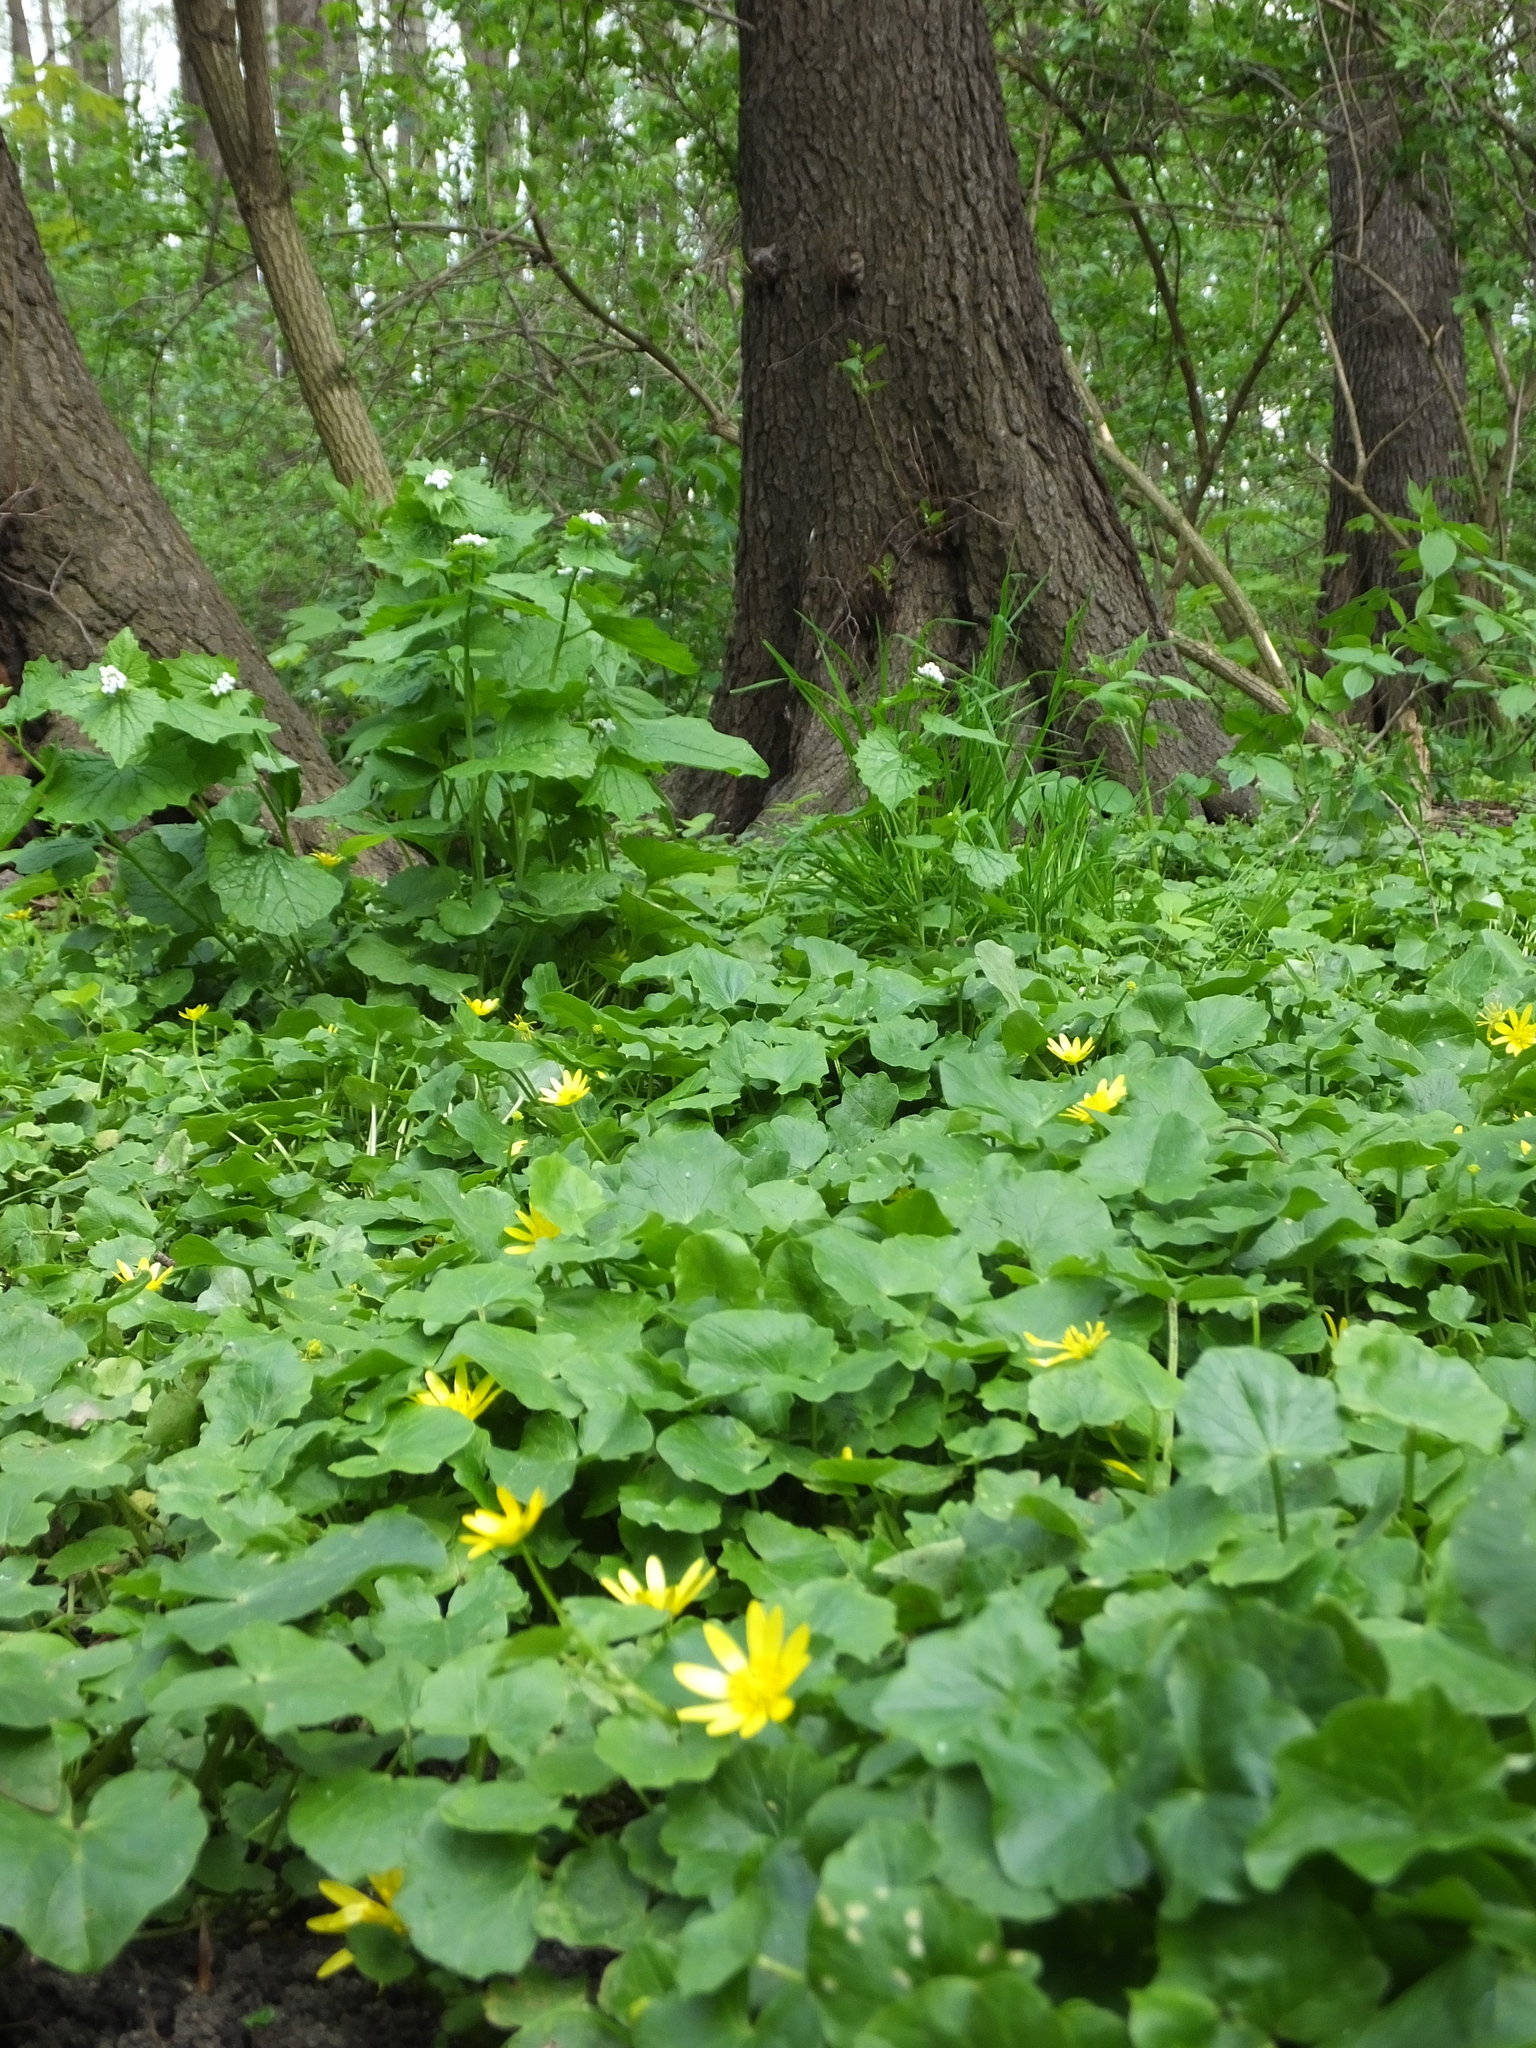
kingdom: Plantae
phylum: Tracheophyta
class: Magnoliopsida
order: Ranunculales
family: Ranunculaceae
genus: Ficaria
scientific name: Ficaria verna
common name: Lesser celandine
